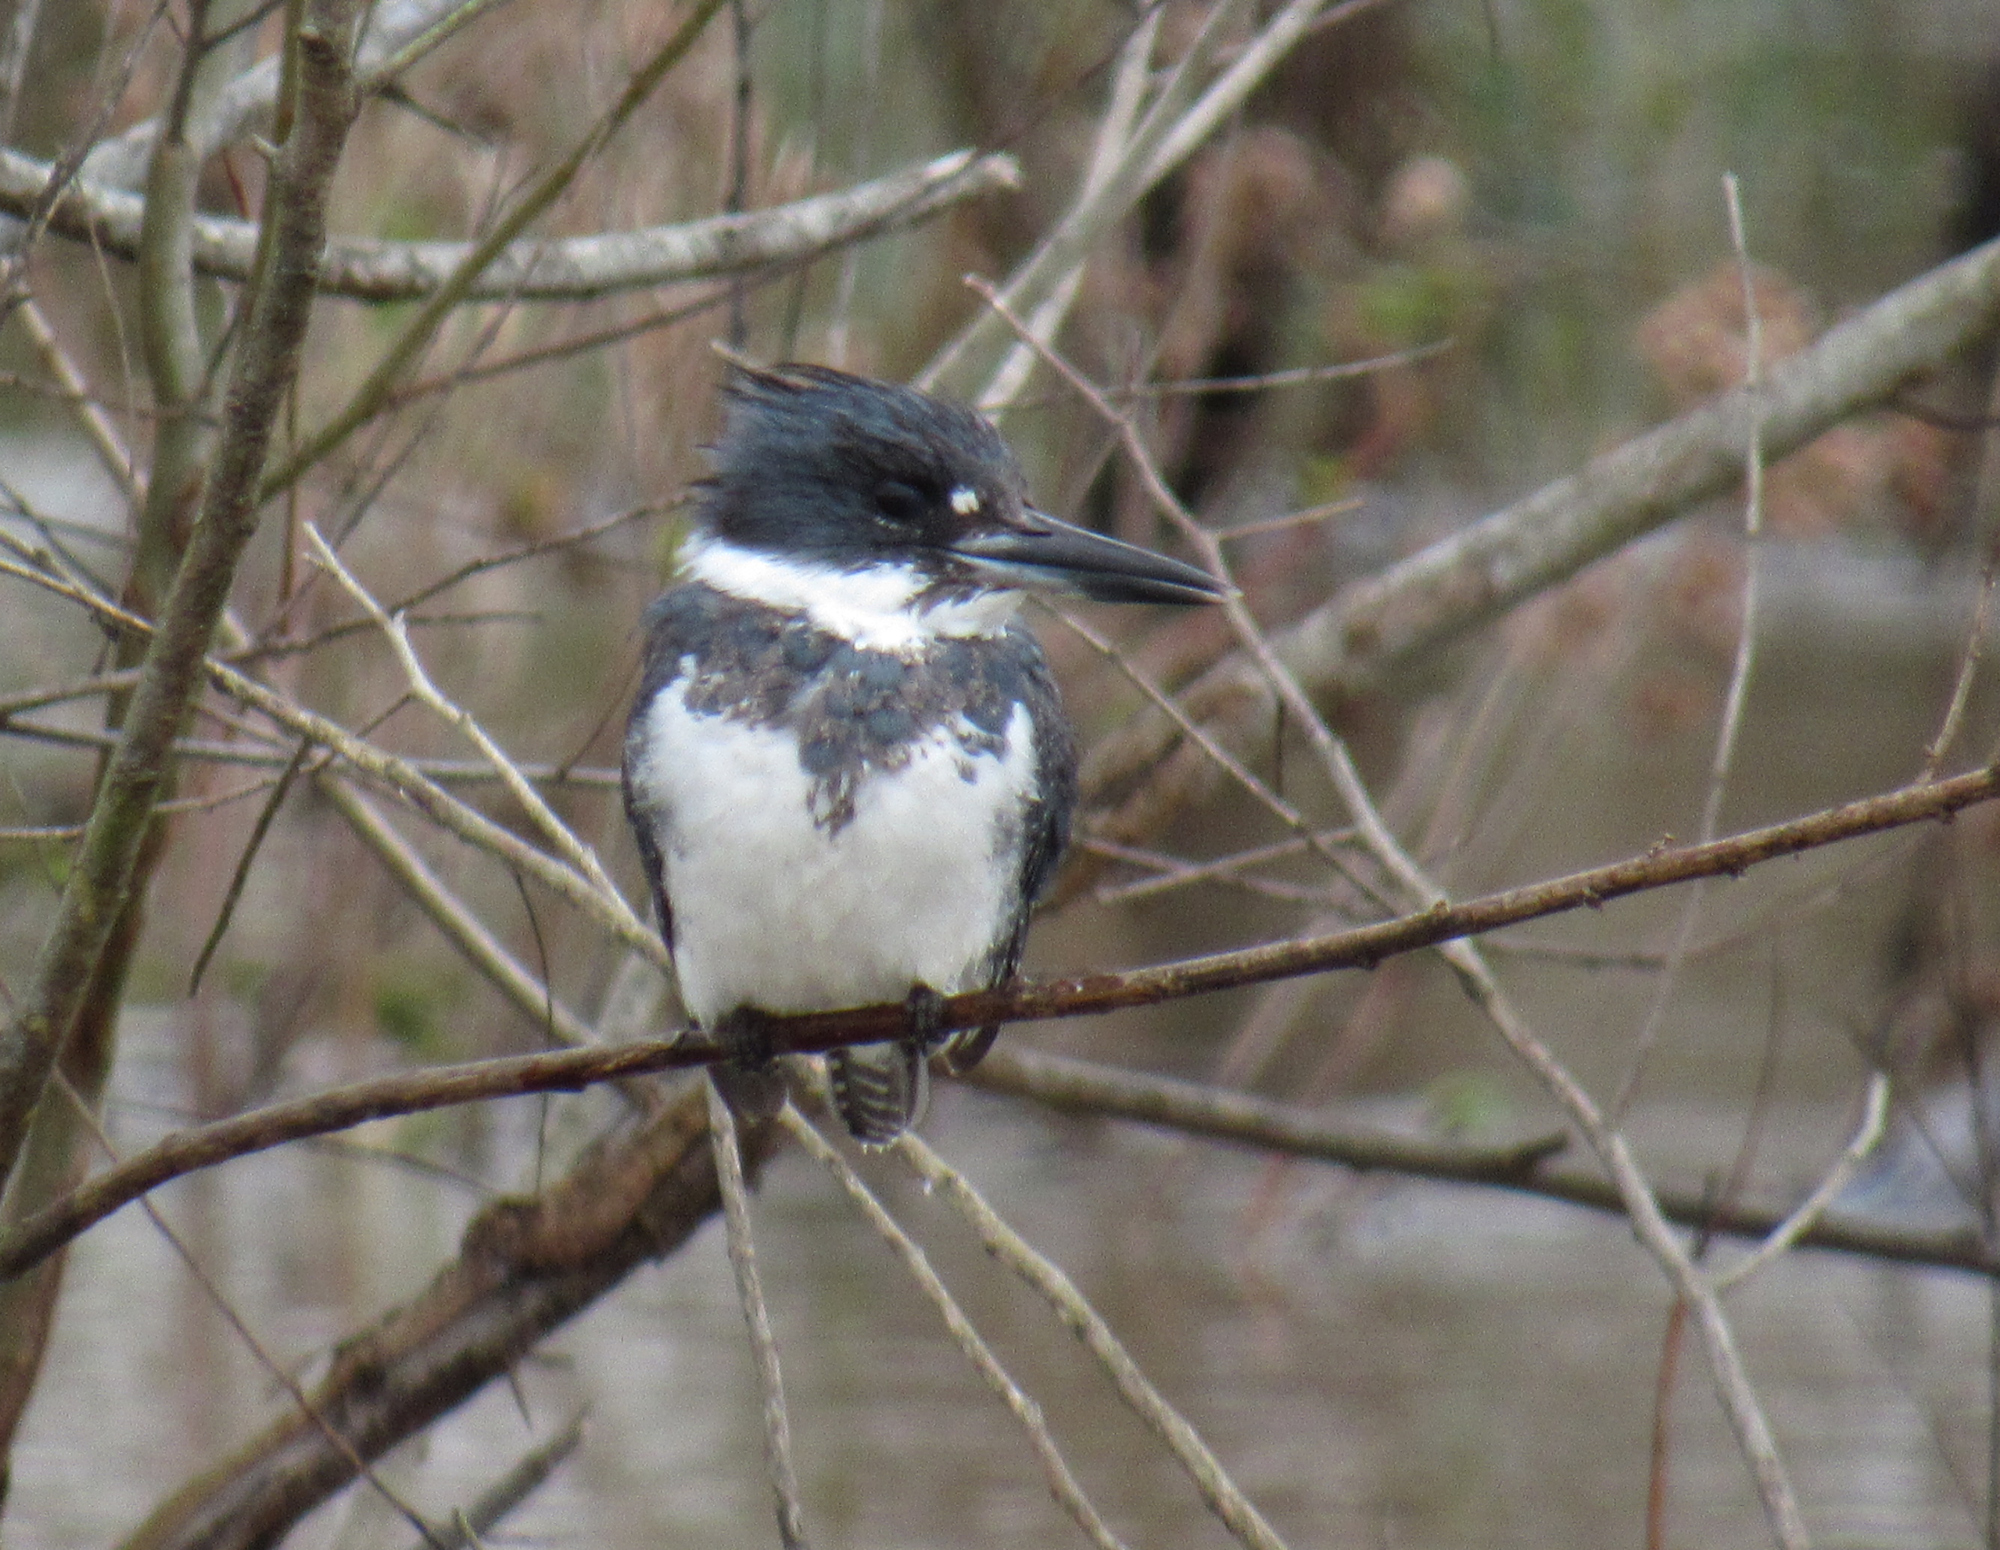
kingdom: Animalia
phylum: Chordata
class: Aves
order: Coraciiformes
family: Alcedinidae
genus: Megaceryle
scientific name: Megaceryle alcyon
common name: Belted kingfisher
